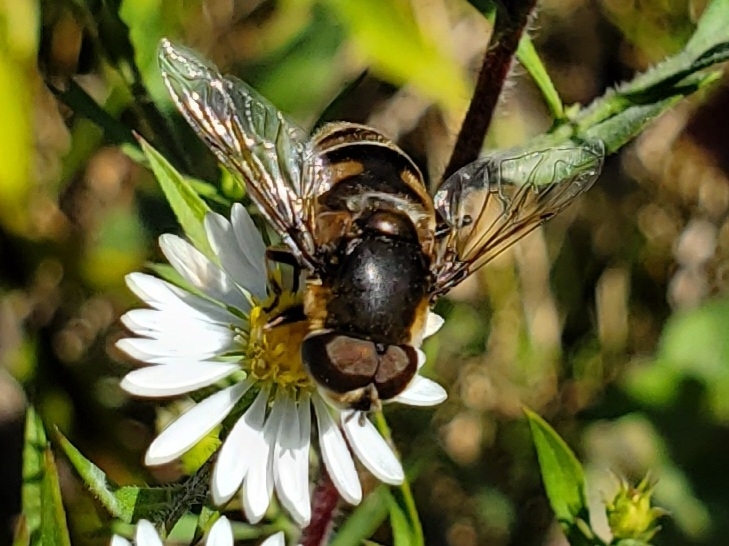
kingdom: Animalia
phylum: Arthropoda
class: Insecta
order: Diptera
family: Syrphidae
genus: Eristalis
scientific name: Eristalis dimidiata
